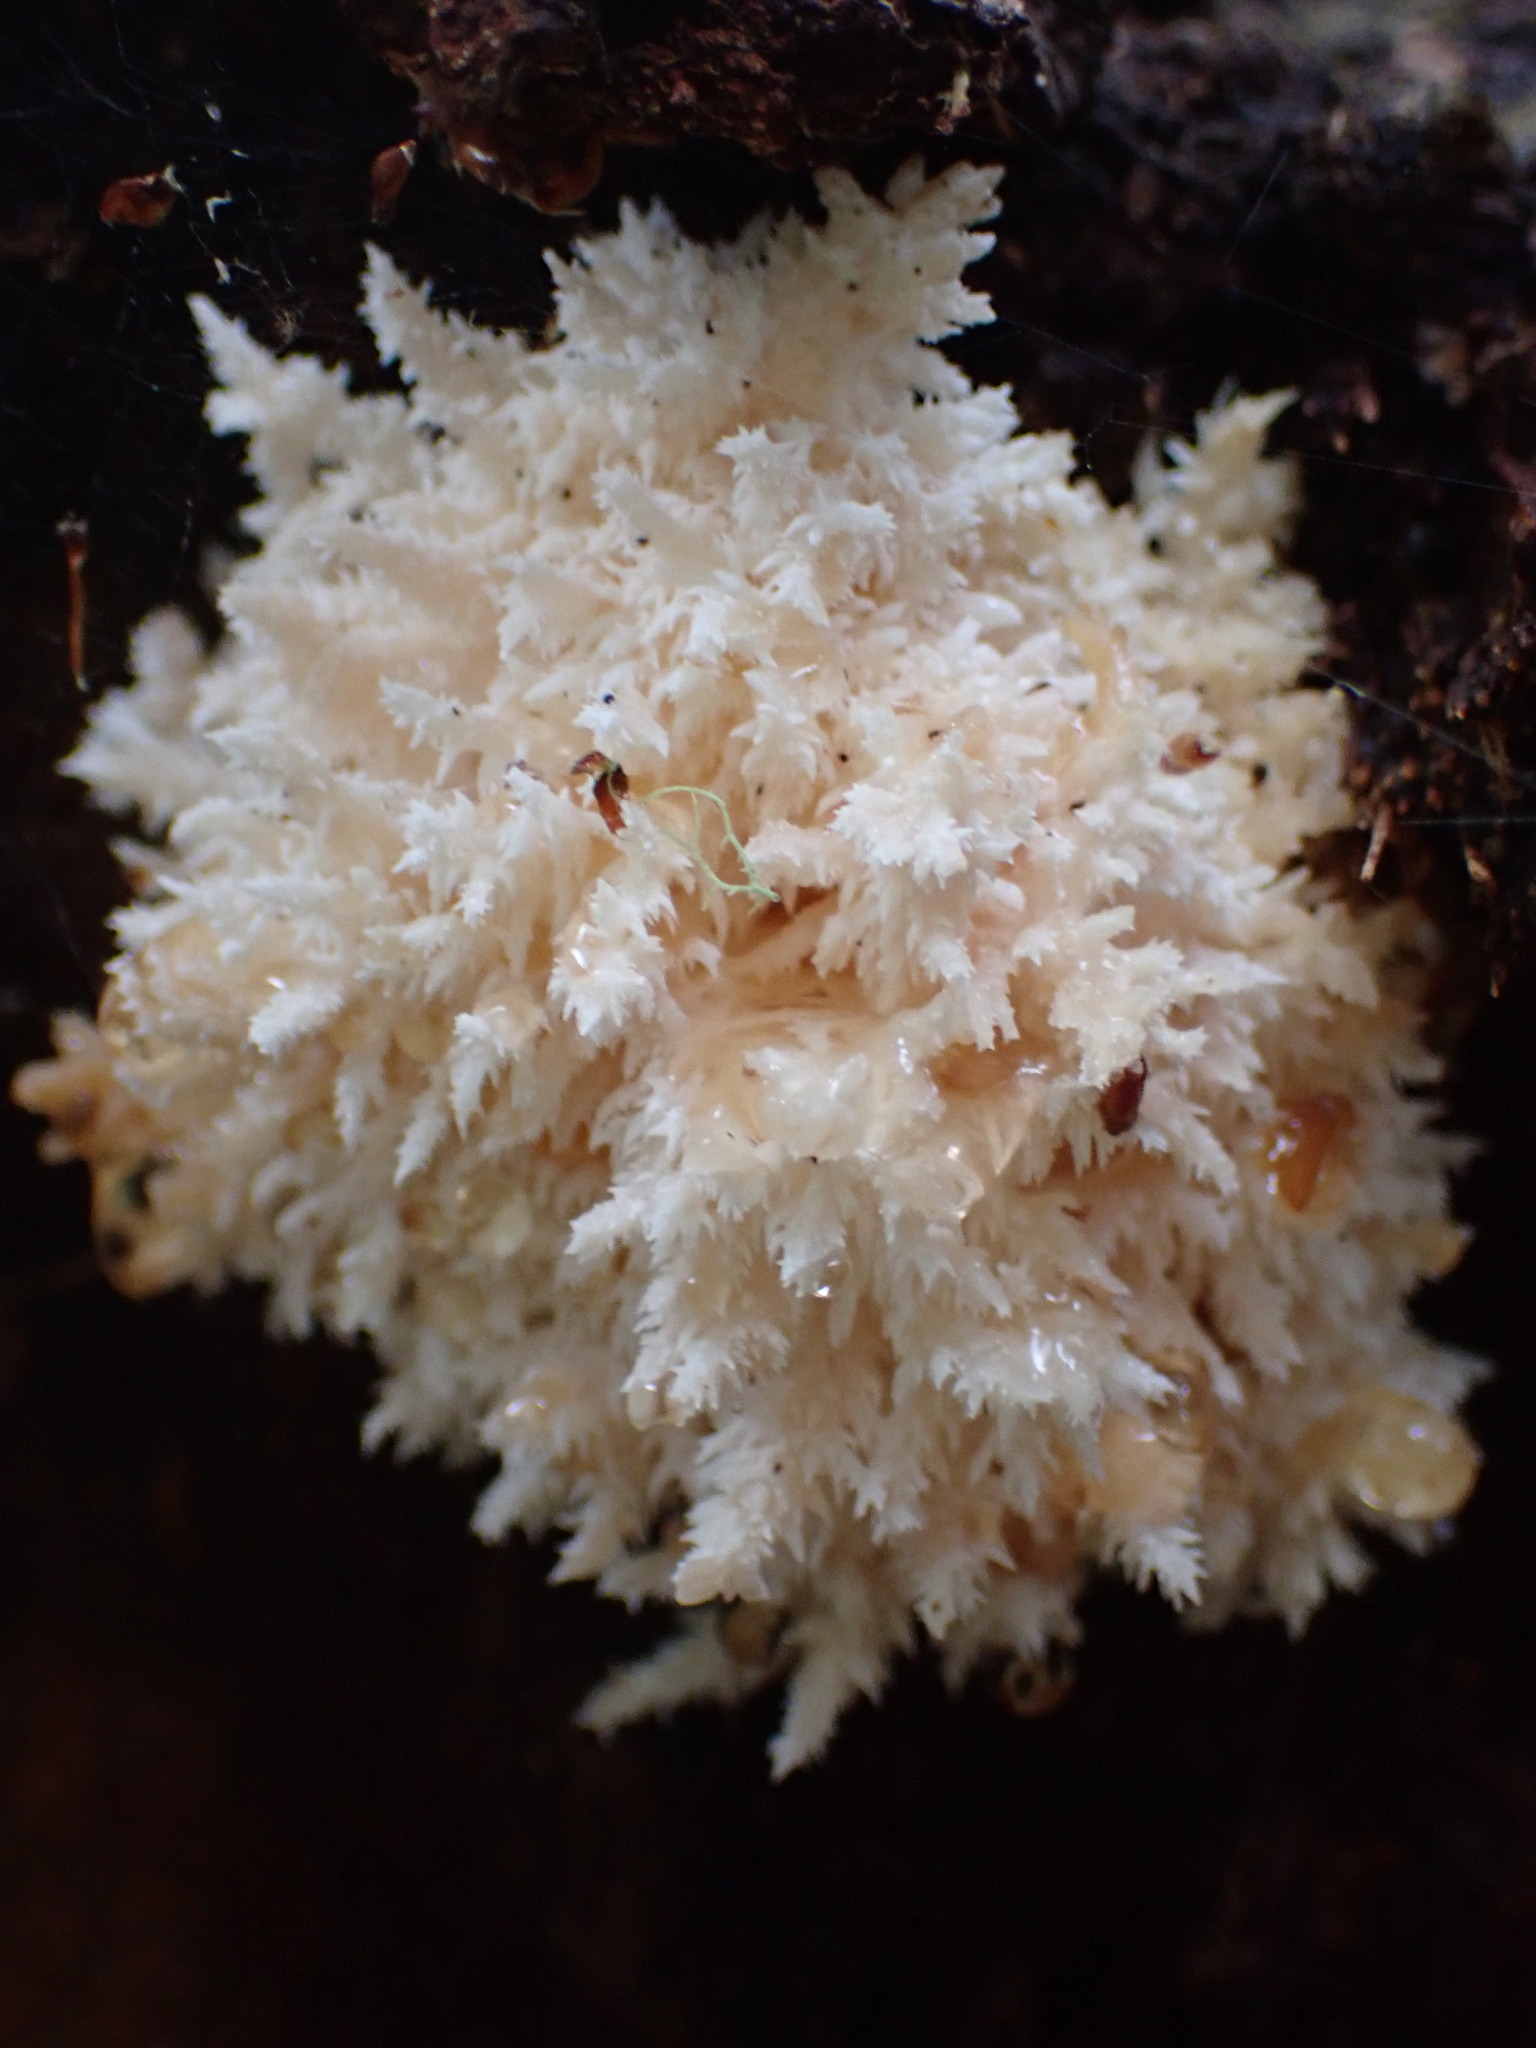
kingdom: Fungi
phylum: Basidiomycota
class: Agaricomycetes
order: Russulales
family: Hericiaceae
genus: Hericium
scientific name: Hericium novae-zealandiae
